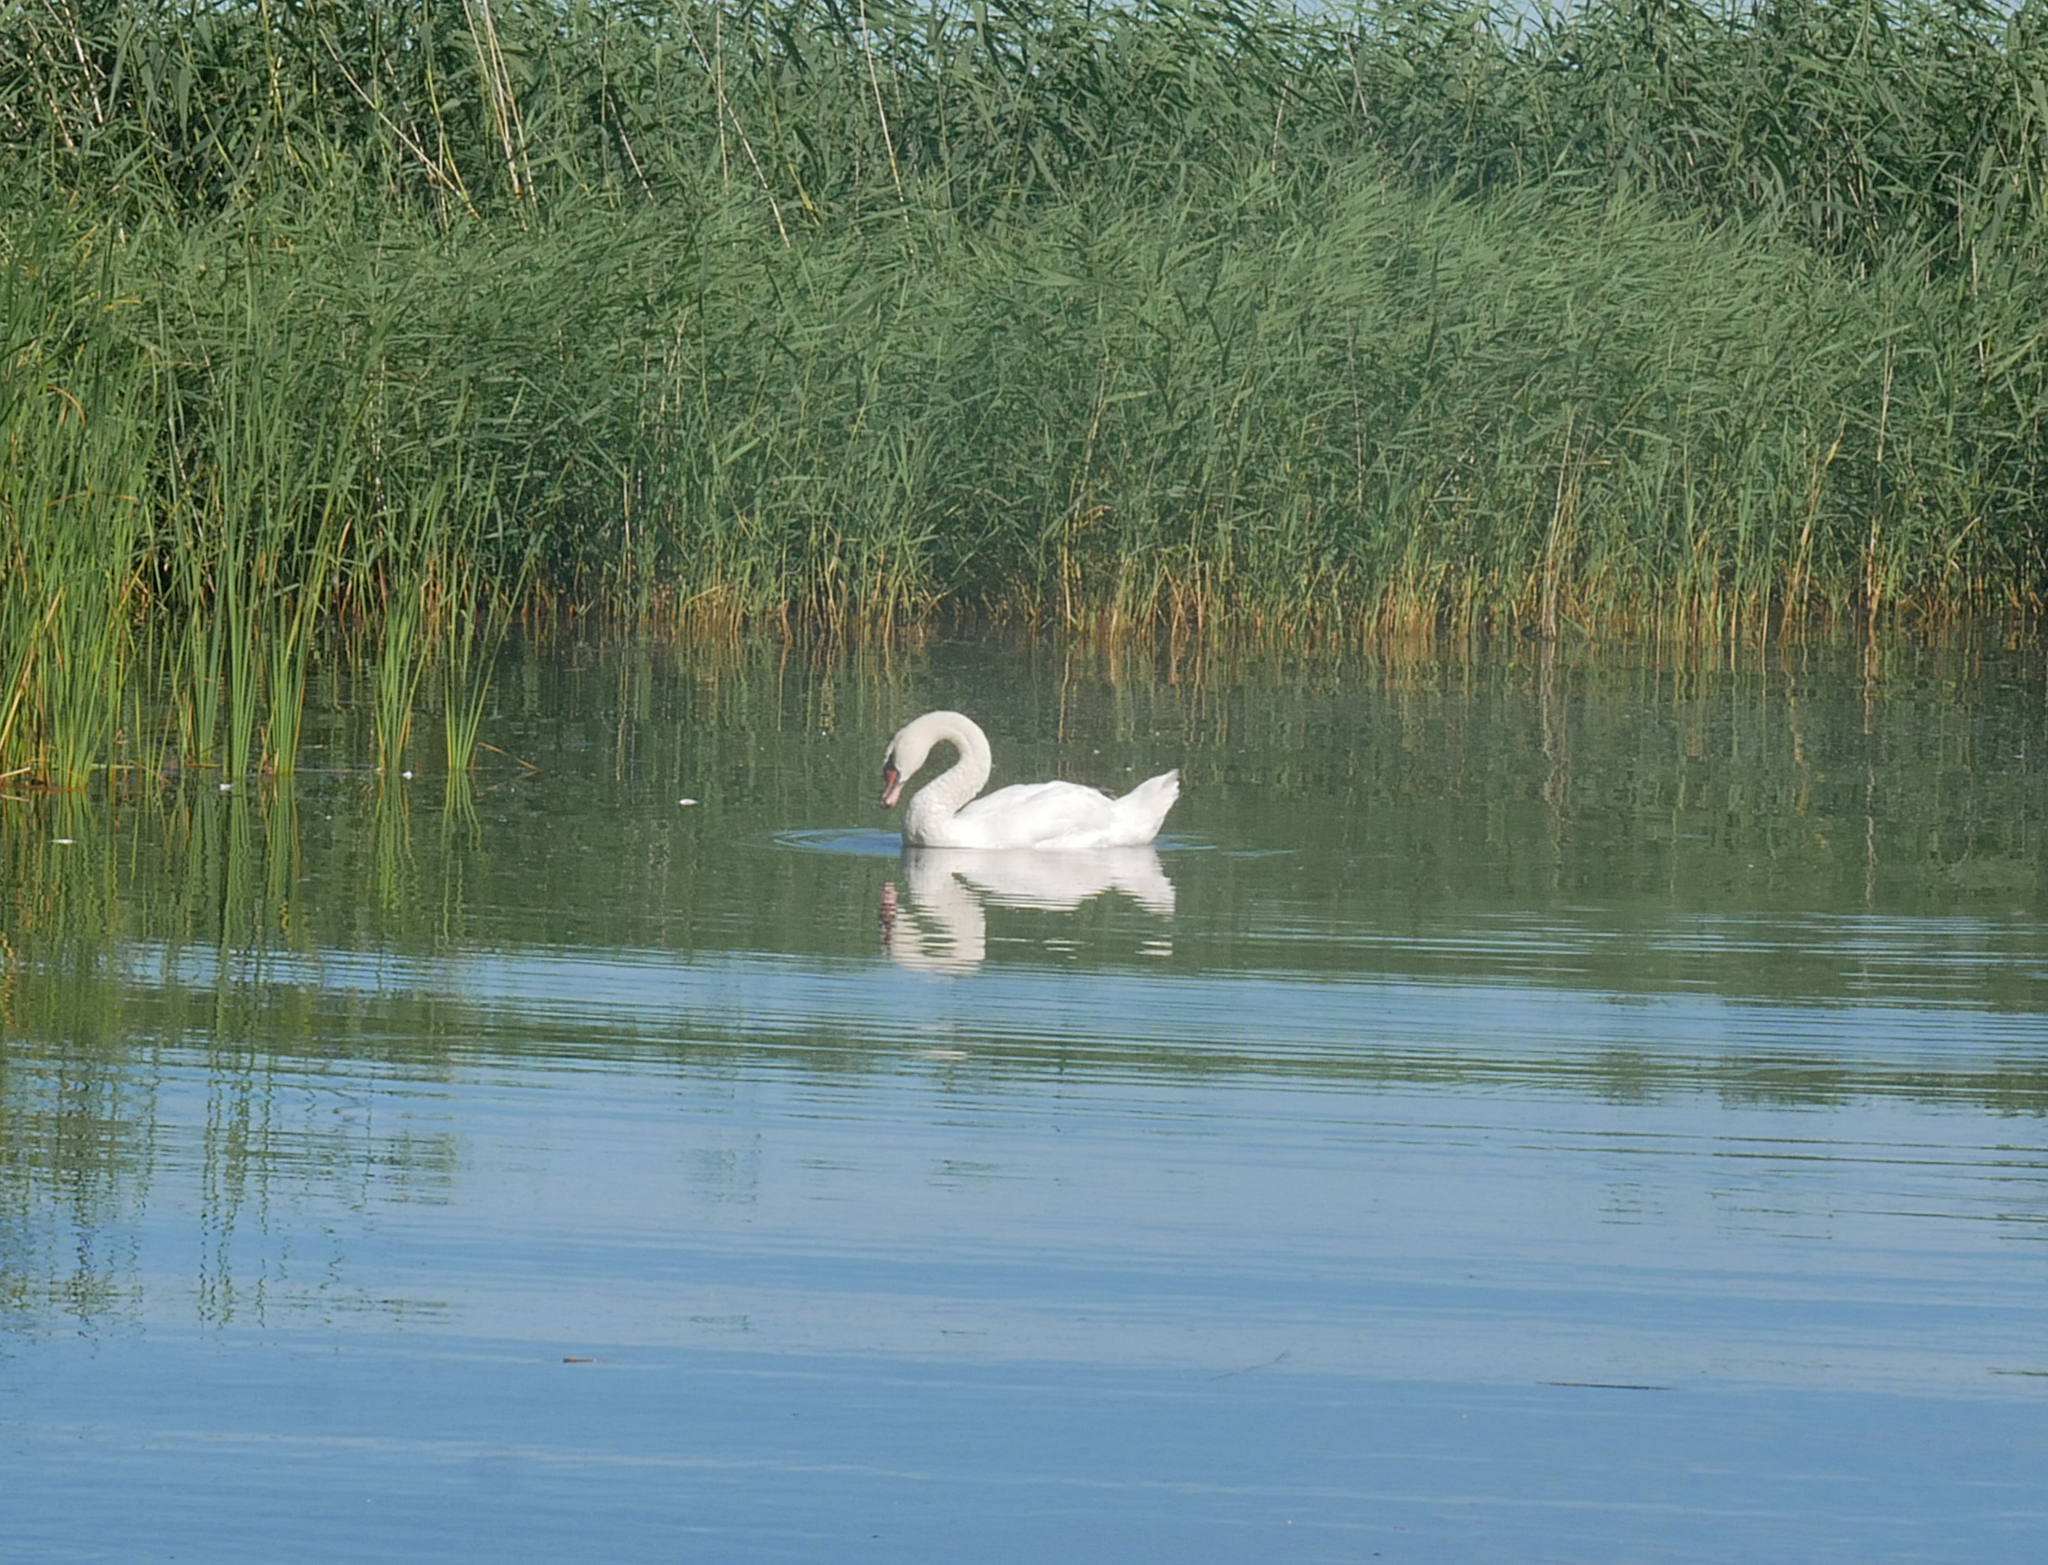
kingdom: Animalia
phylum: Chordata
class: Aves
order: Anseriformes
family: Anatidae
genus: Cygnus
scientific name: Cygnus olor
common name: Mute swan
